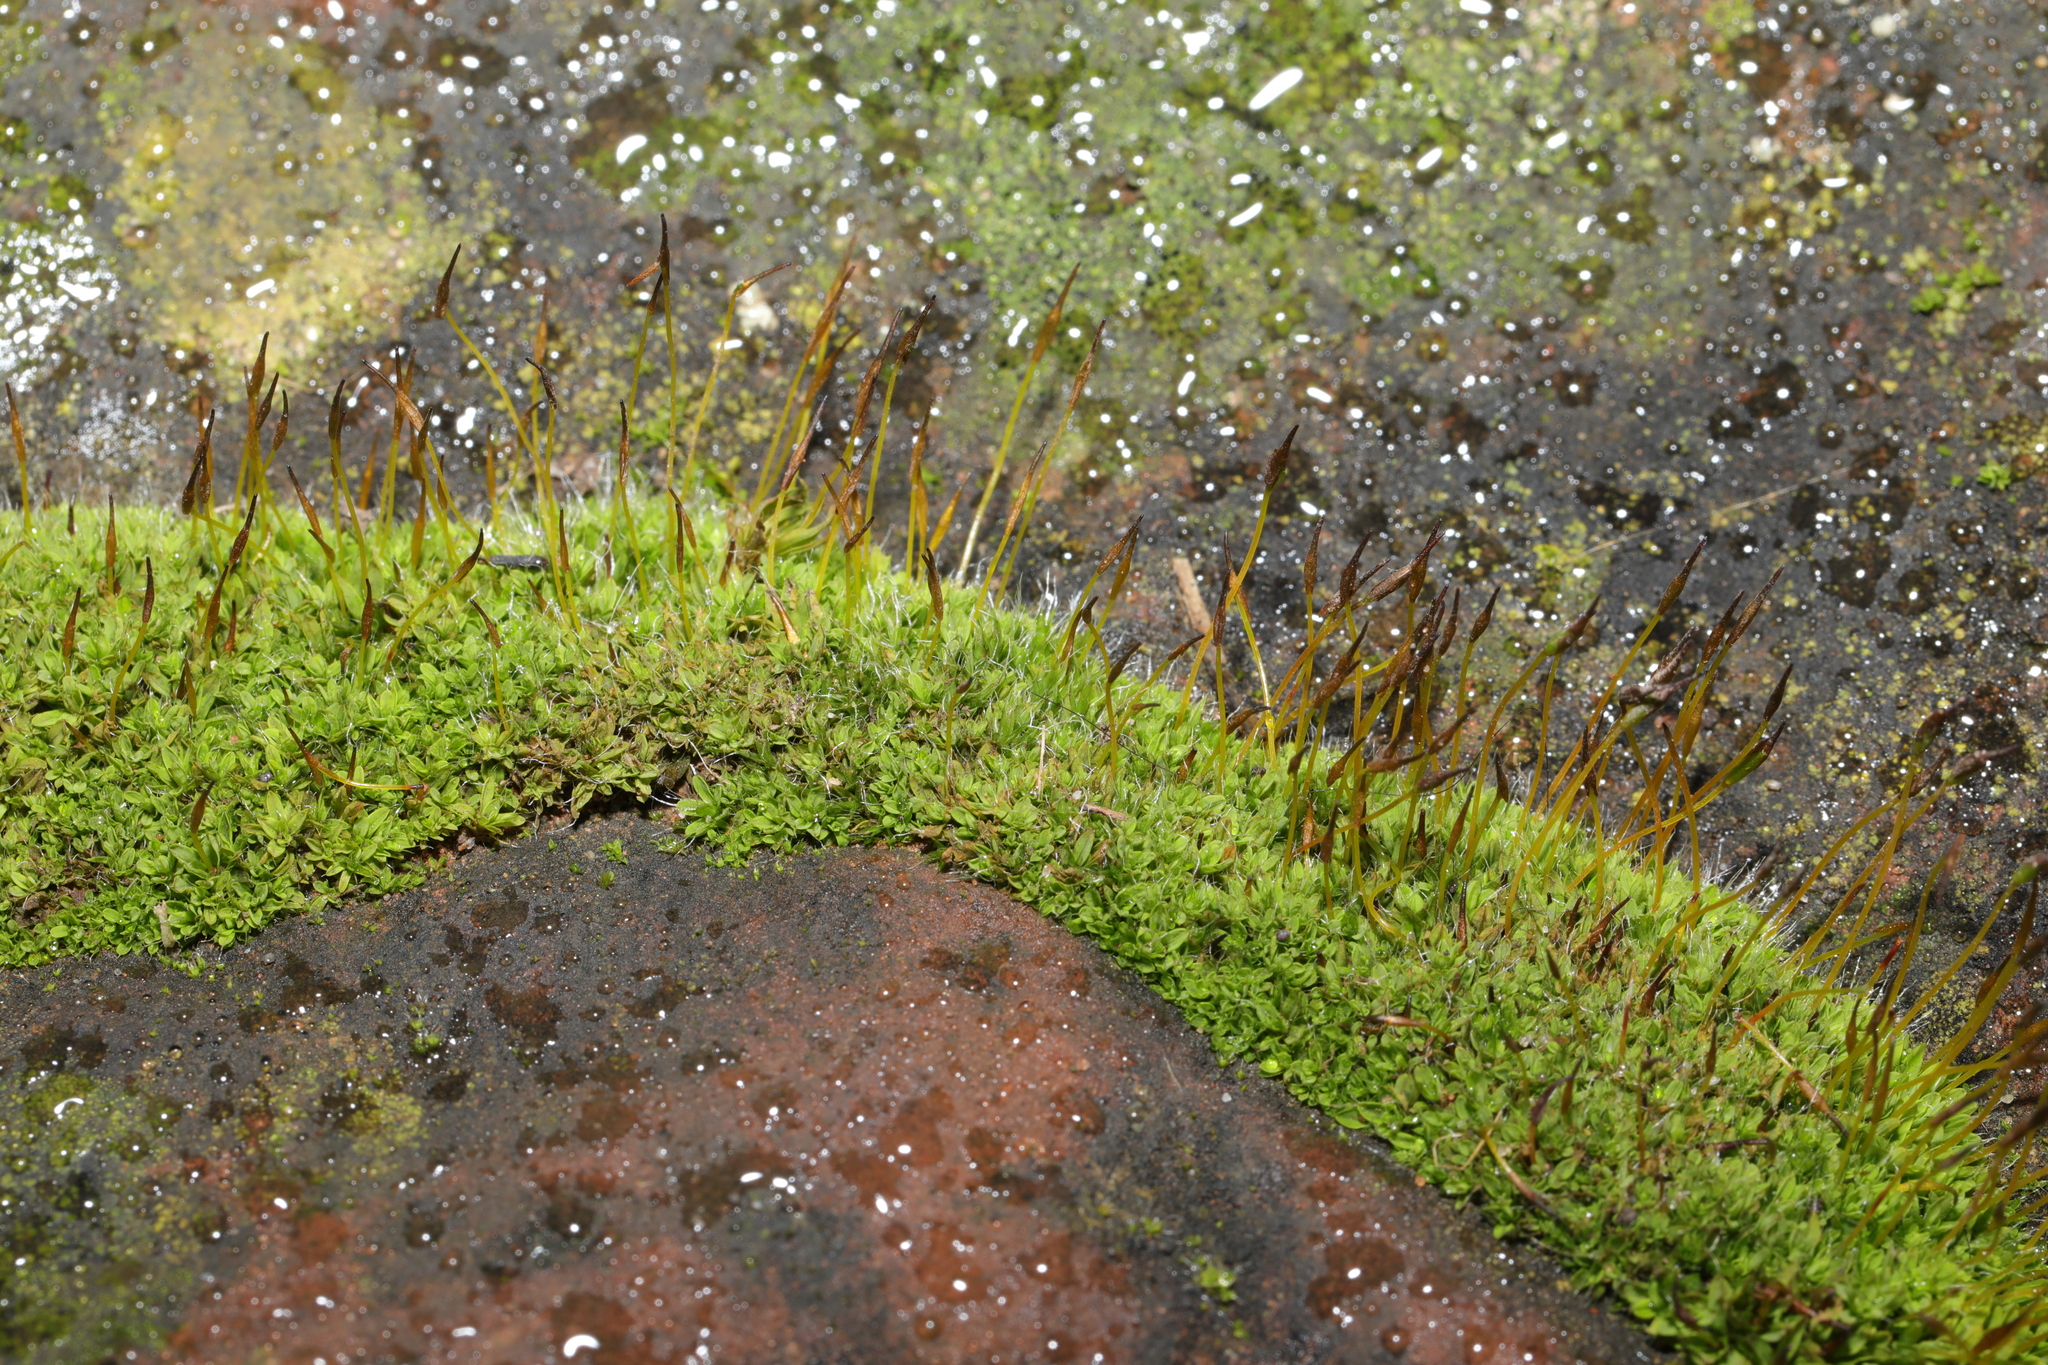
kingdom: Plantae
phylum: Bryophyta
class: Bryopsida
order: Pottiales
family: Pottiaceae
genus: Tortula
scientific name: Tortula muralis
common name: Wall screw-moss
